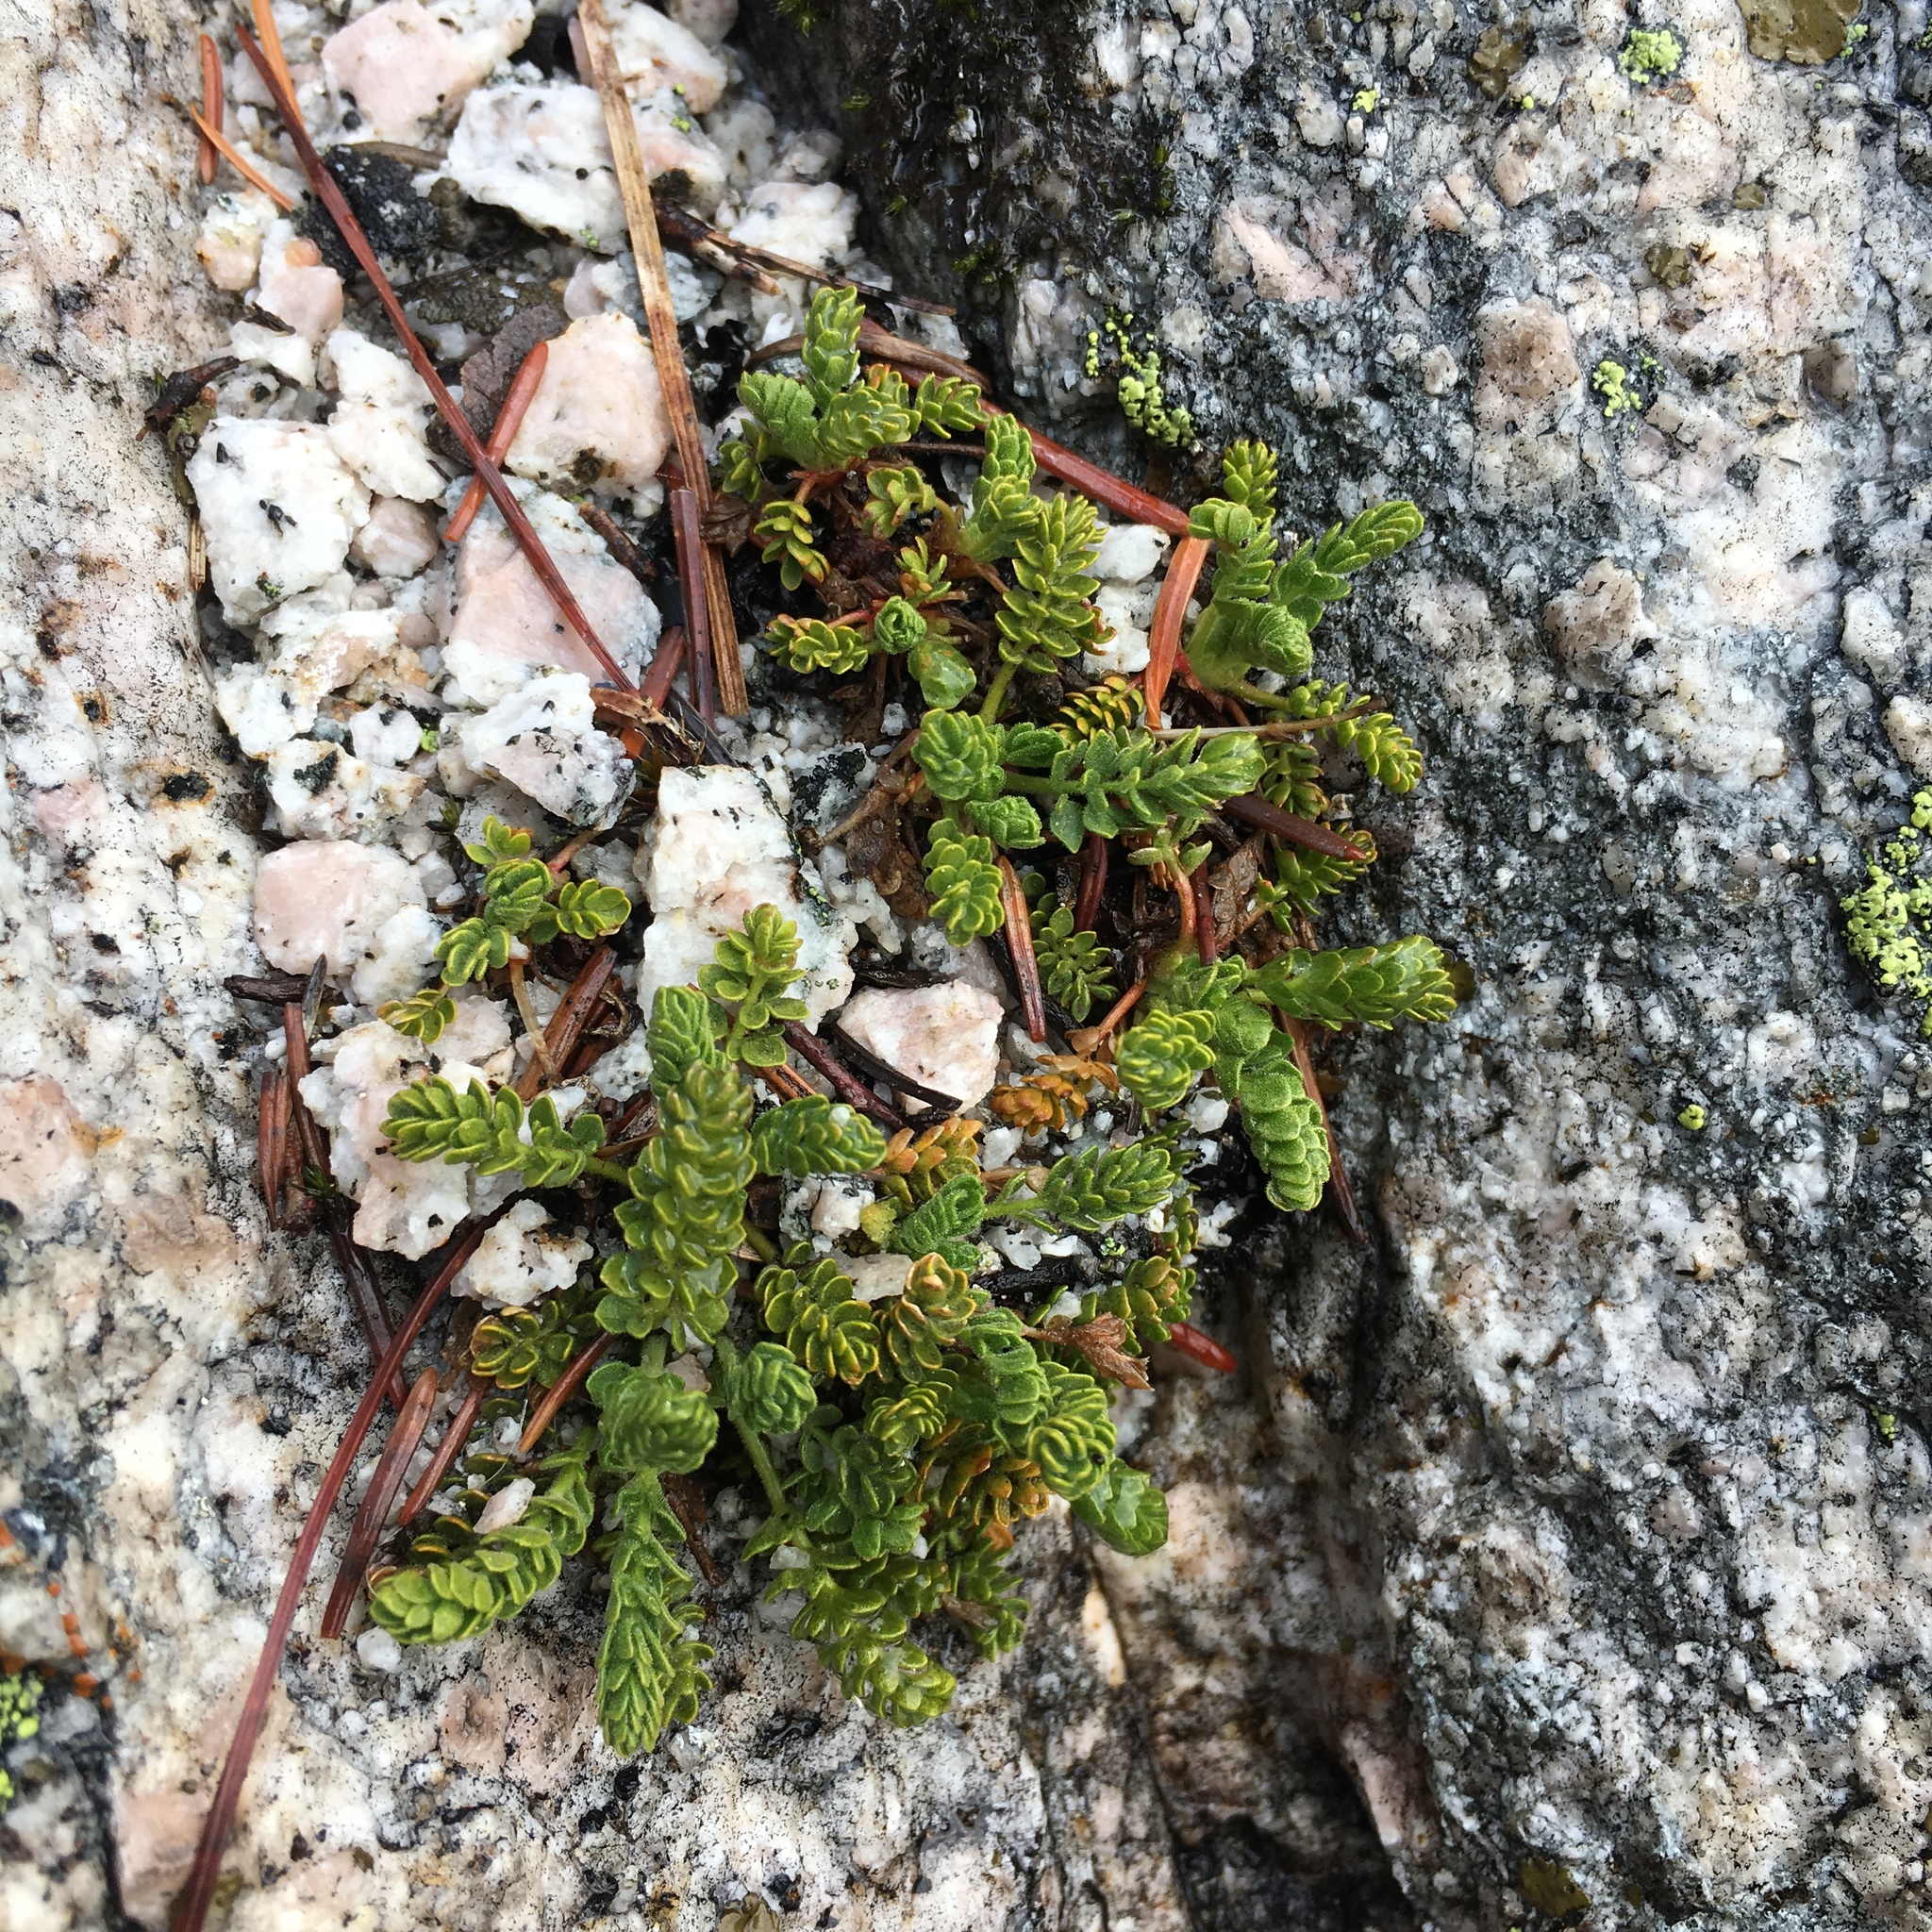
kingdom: Plantae
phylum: Tracheophyta
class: Magnoliopsida
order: Rosales
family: Rosaceae
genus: Potentilla
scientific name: Potentilla longibracteata
